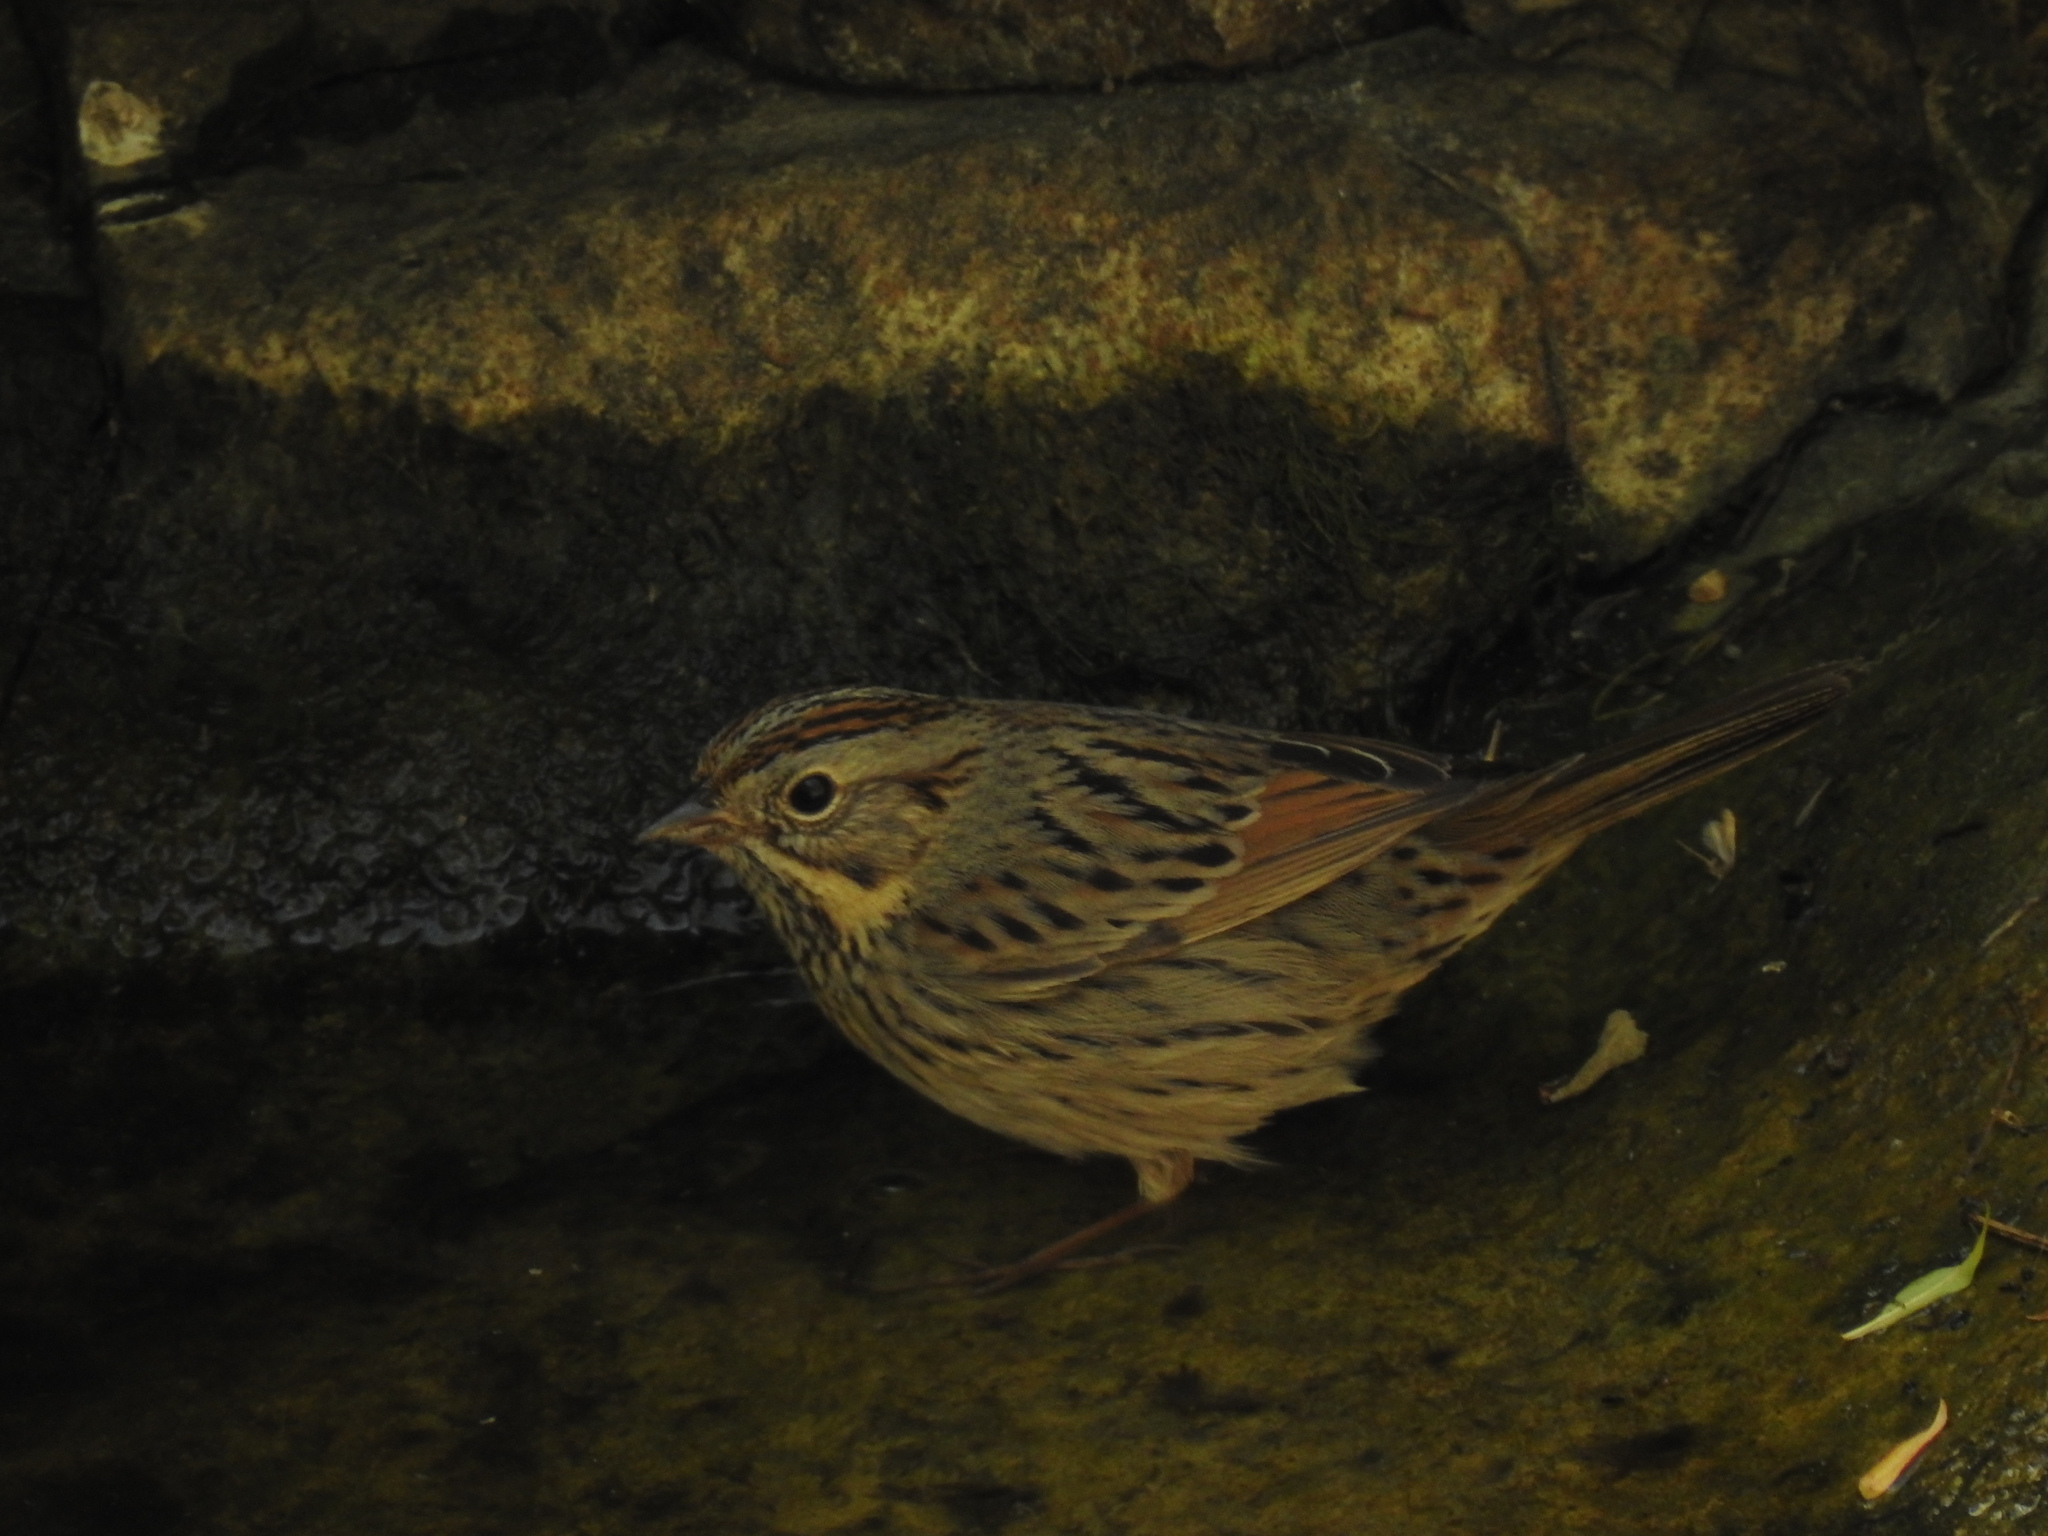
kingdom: Animalia
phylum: Chordata
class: Aves
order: Passeriformes
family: Passerellidae
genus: Melospiza
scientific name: Melospiza lincolnii
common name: Lincoln's sparrow
